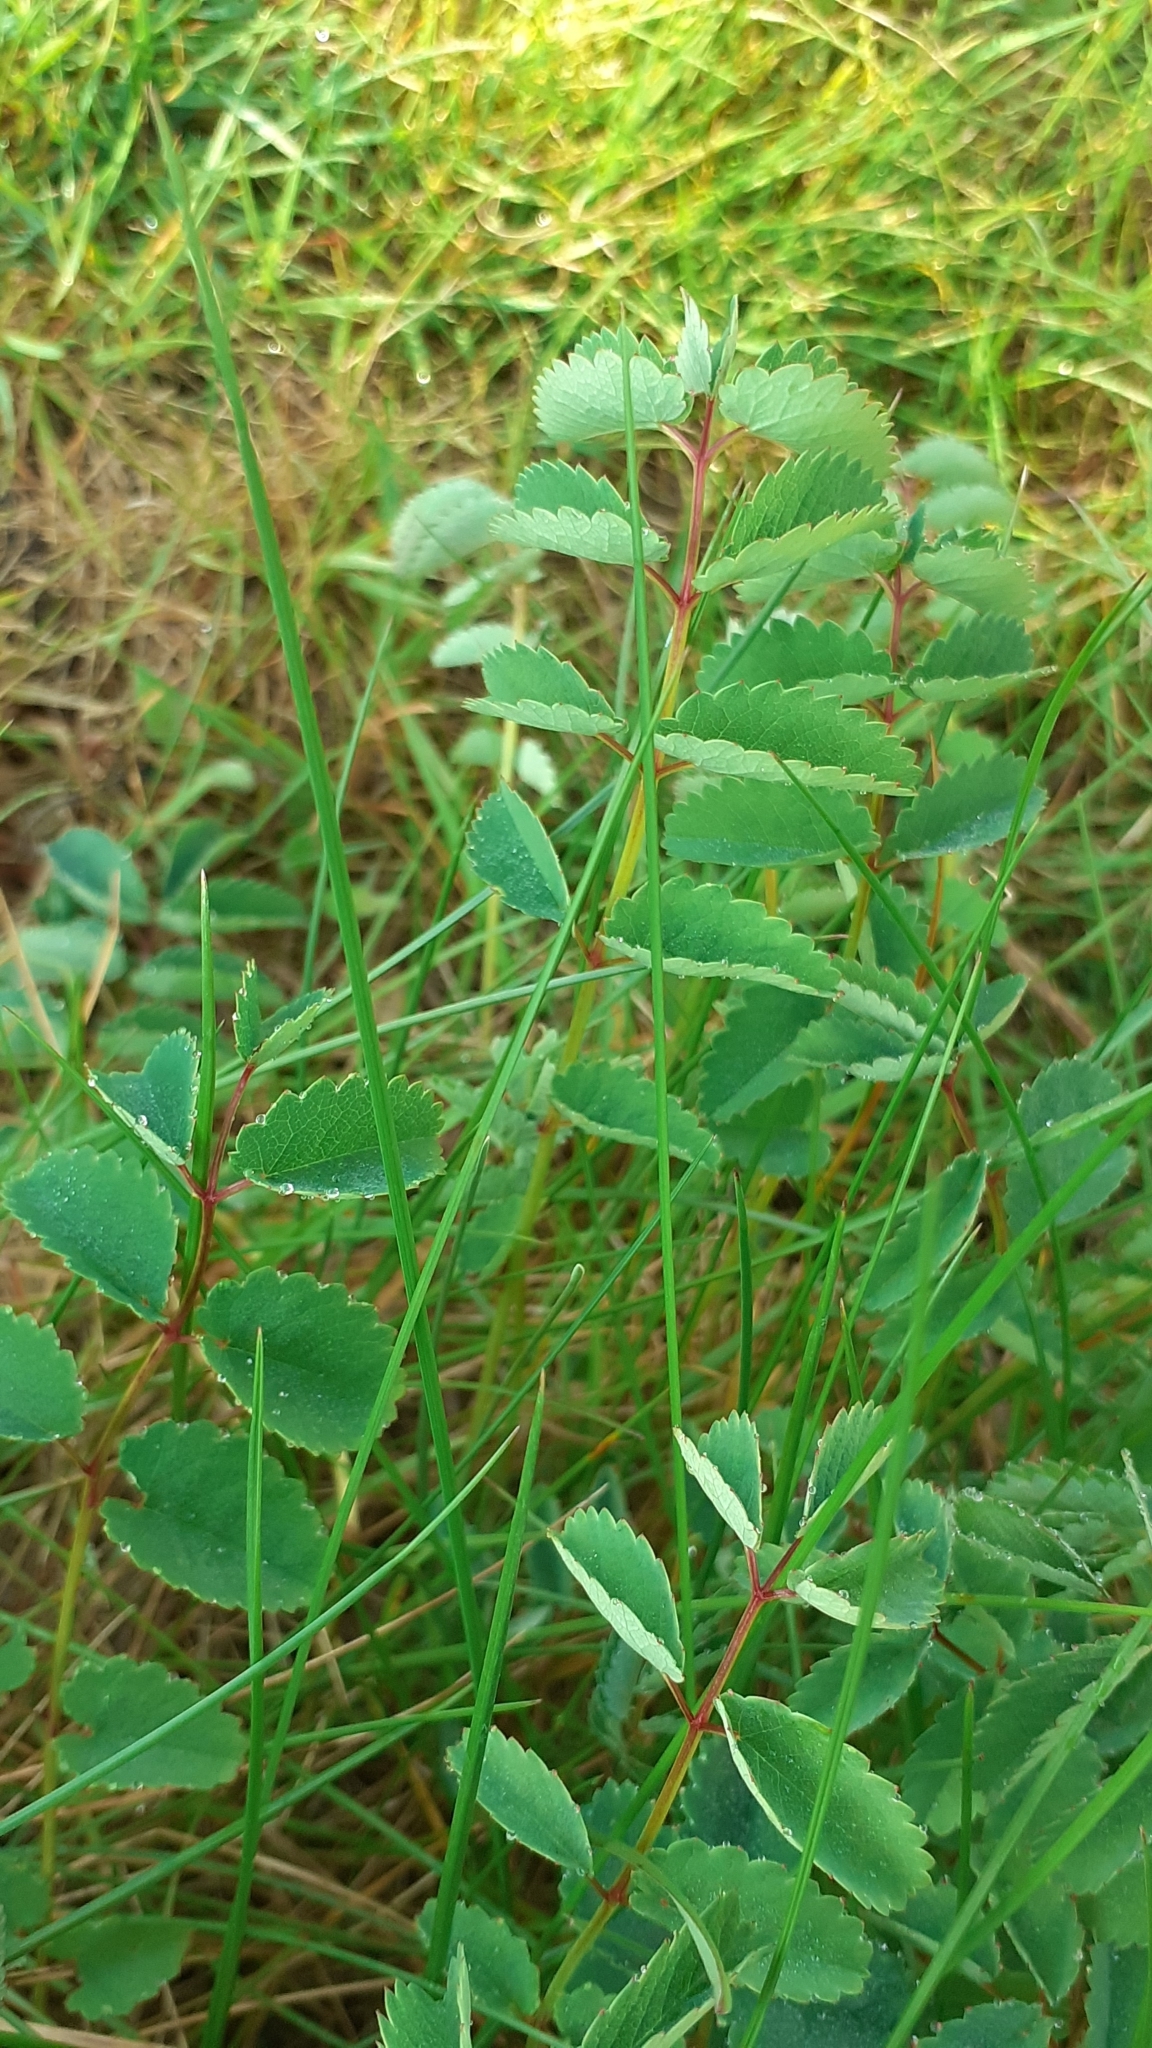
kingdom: Plantae
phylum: Tracheophyta
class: Magnoliopsida
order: Rosales
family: Rosaceae
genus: Sanguisorba
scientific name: Sanguisorba officinalis
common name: Great burnet
